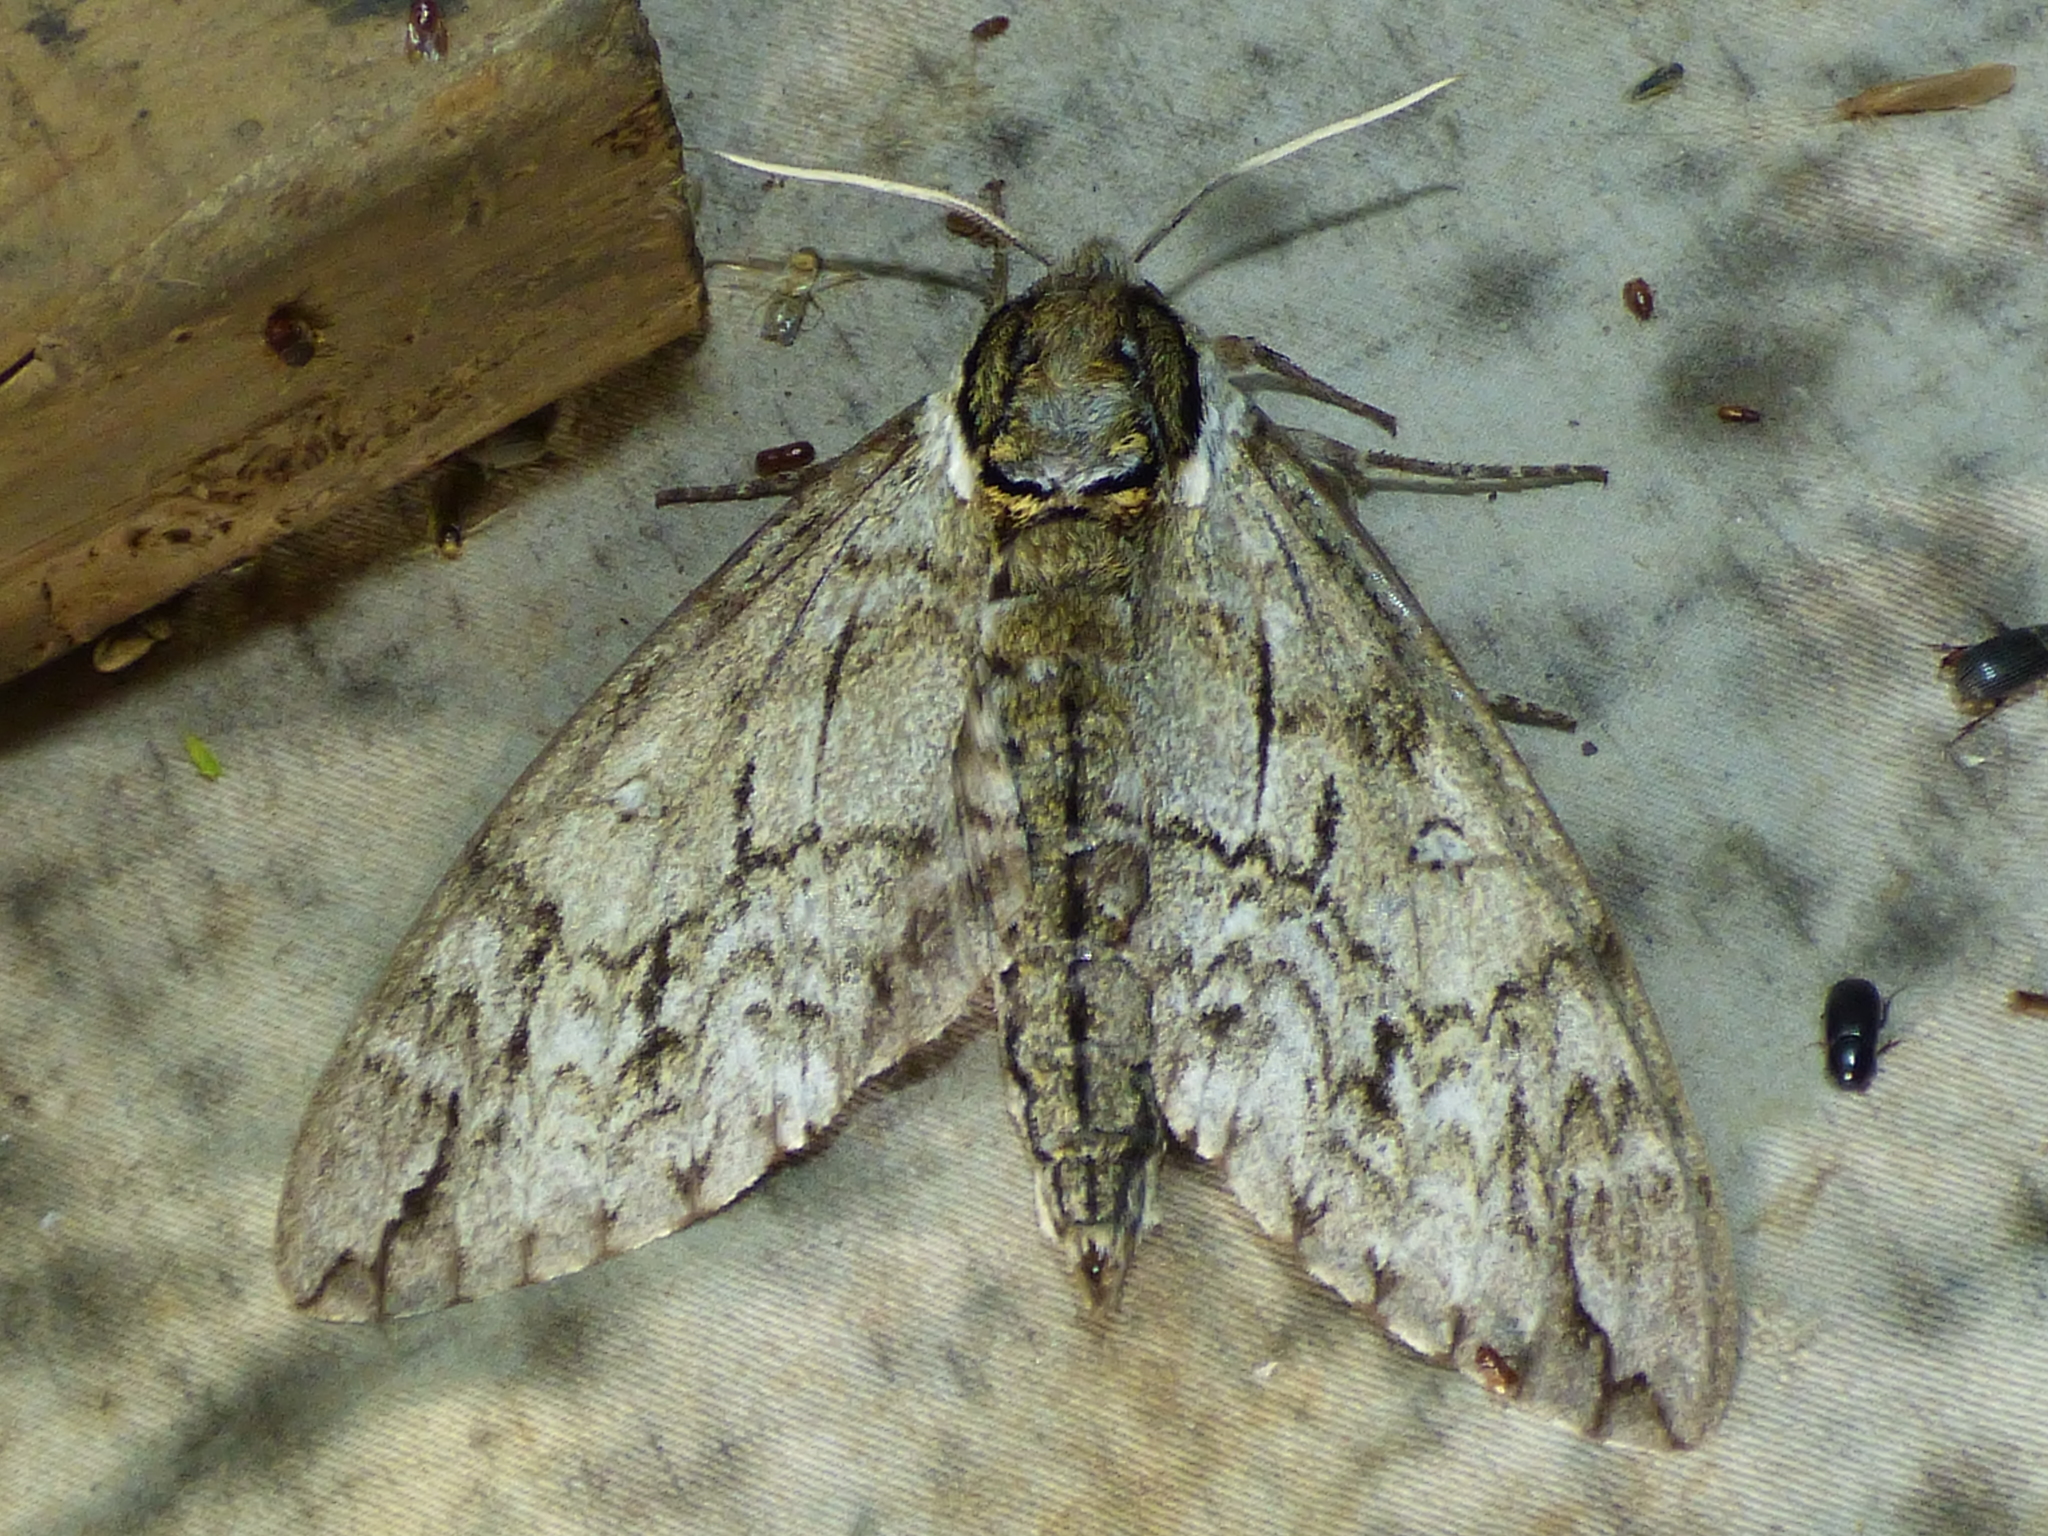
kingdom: Animalia
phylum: Arthropoda
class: Insecta
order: Lepidoptera
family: Sphingidae
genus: Ceratomia
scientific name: Ceratomia undulosa
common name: Waved sphinx
